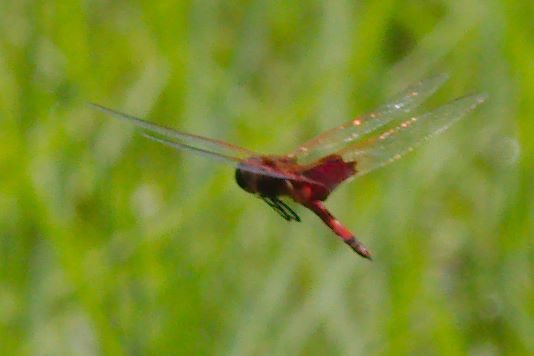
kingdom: Animalia
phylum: Arthropoda
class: Insecta
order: Odonata
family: Libellulidae
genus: Tramea
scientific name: Tramea carolina
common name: Carolina saddlebags
